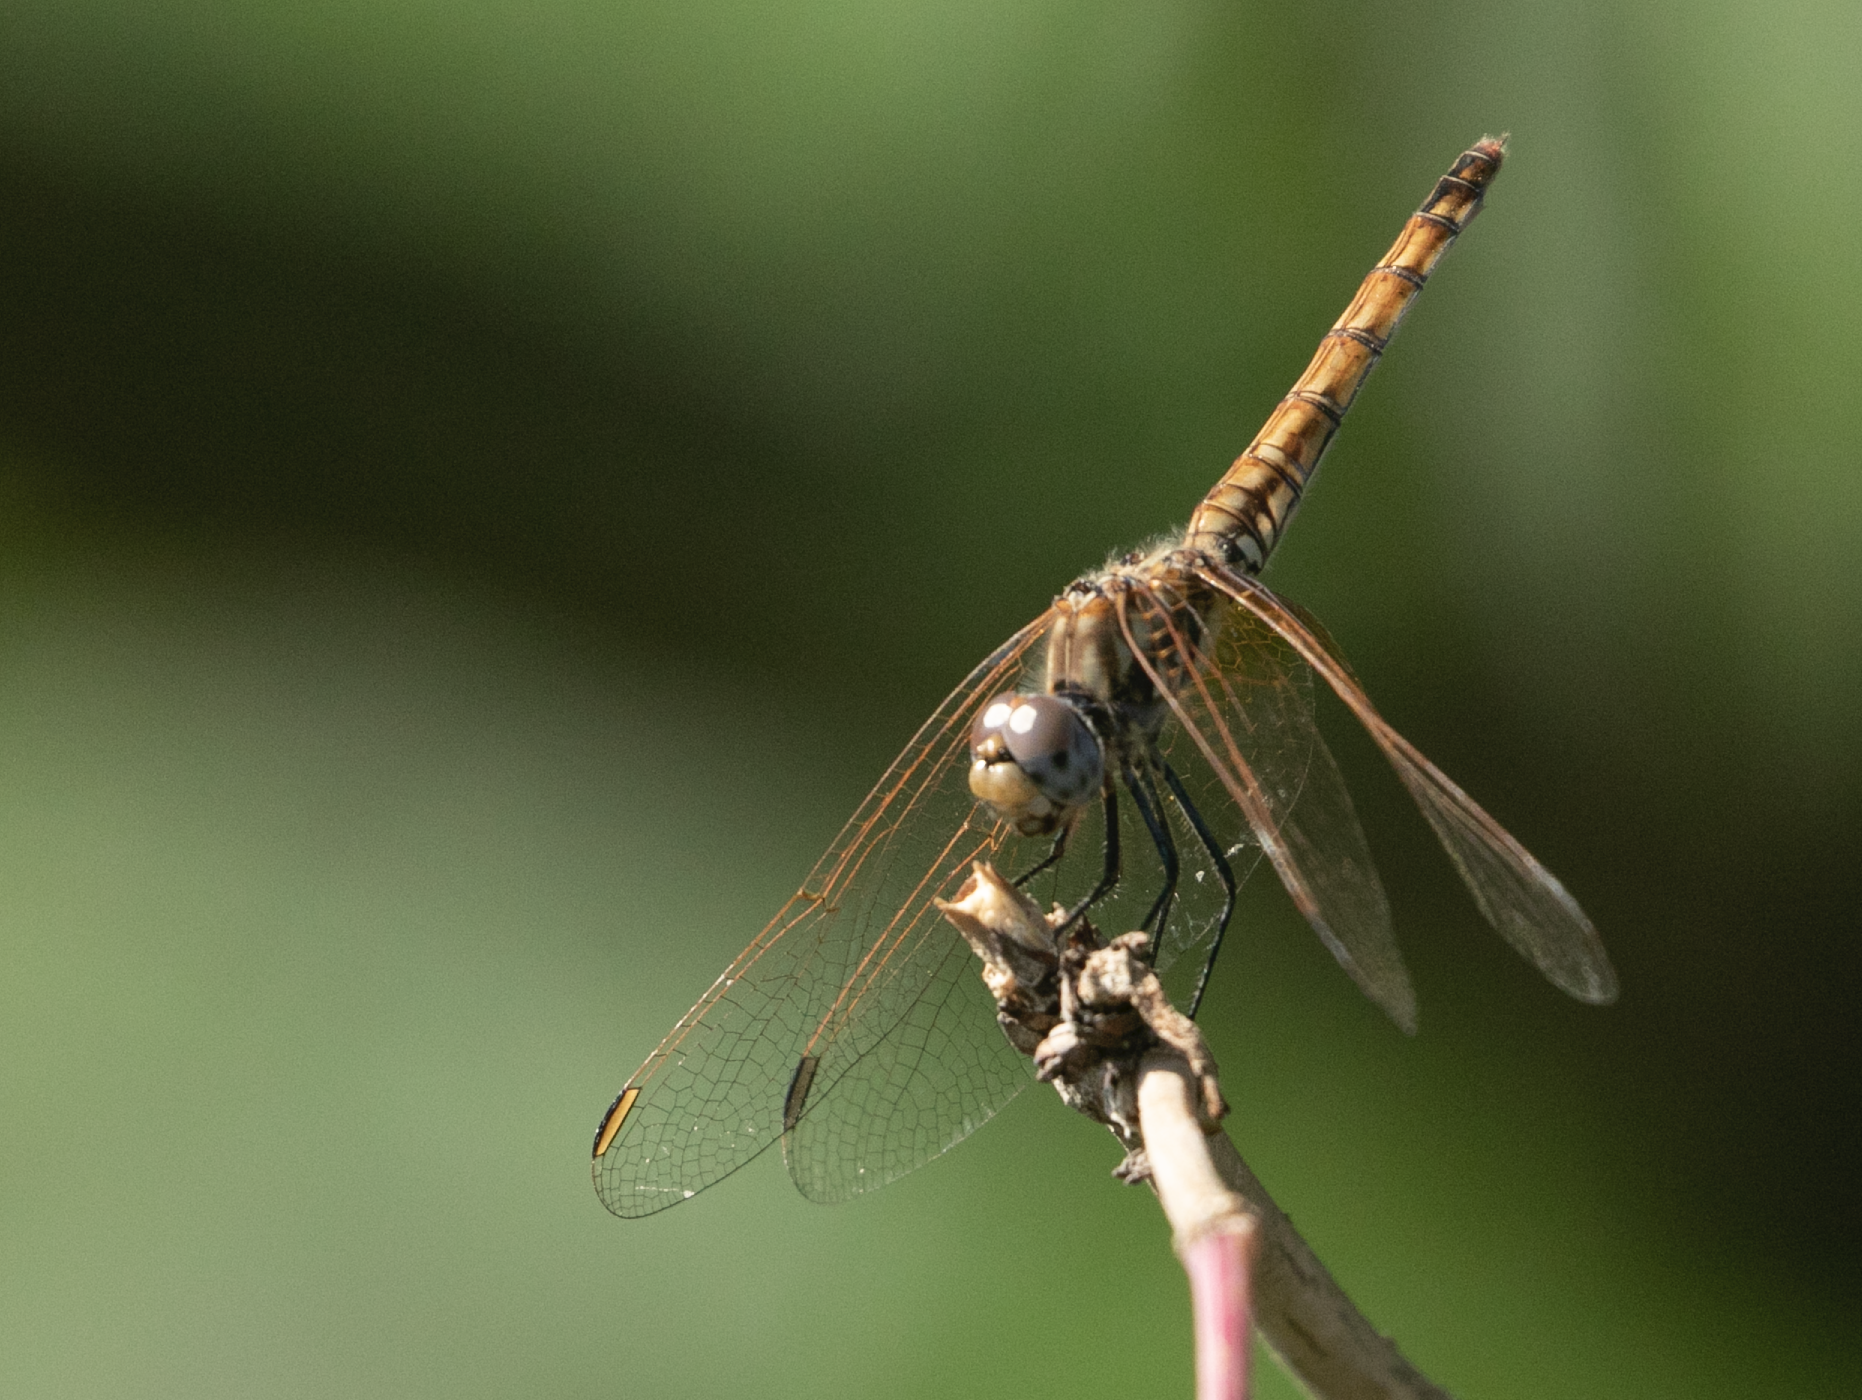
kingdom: Animalia
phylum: Arthropoda
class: Insecta
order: Odonata
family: Libellulidae
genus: Trithemis
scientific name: Trithemis annulata
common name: Violet dropwing
